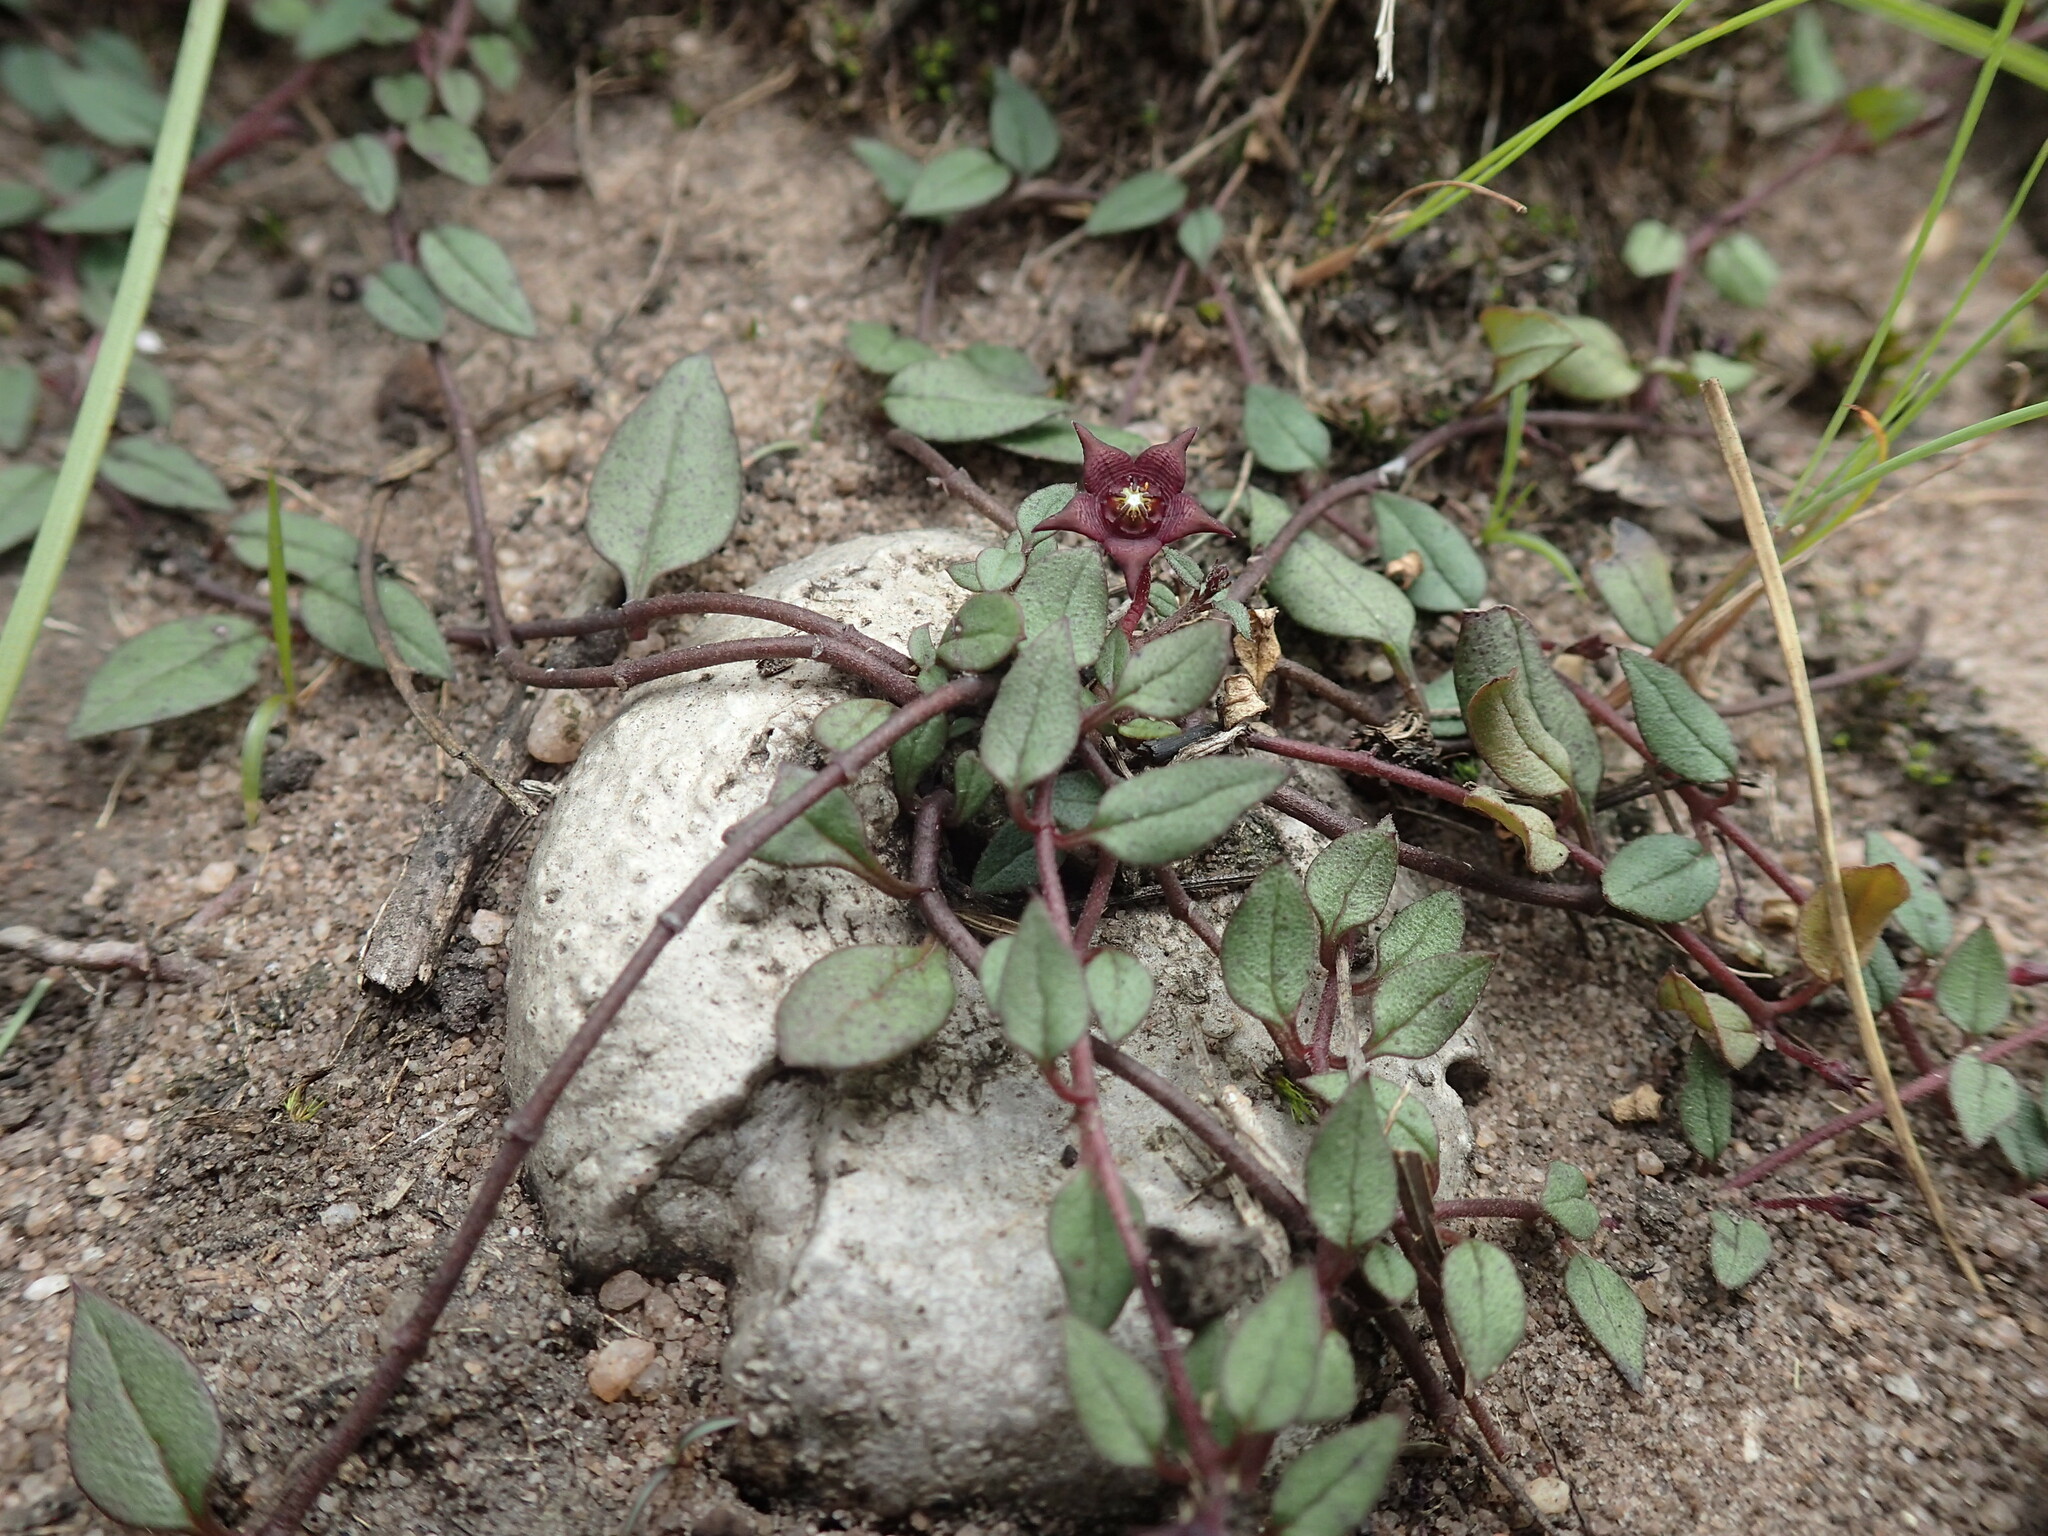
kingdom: Plantae
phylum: Tracheophyta
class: Magnoliopsida
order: Gentianales
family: Apocynaceae
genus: Ceropegia
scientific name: Ceropegia pulchellior
